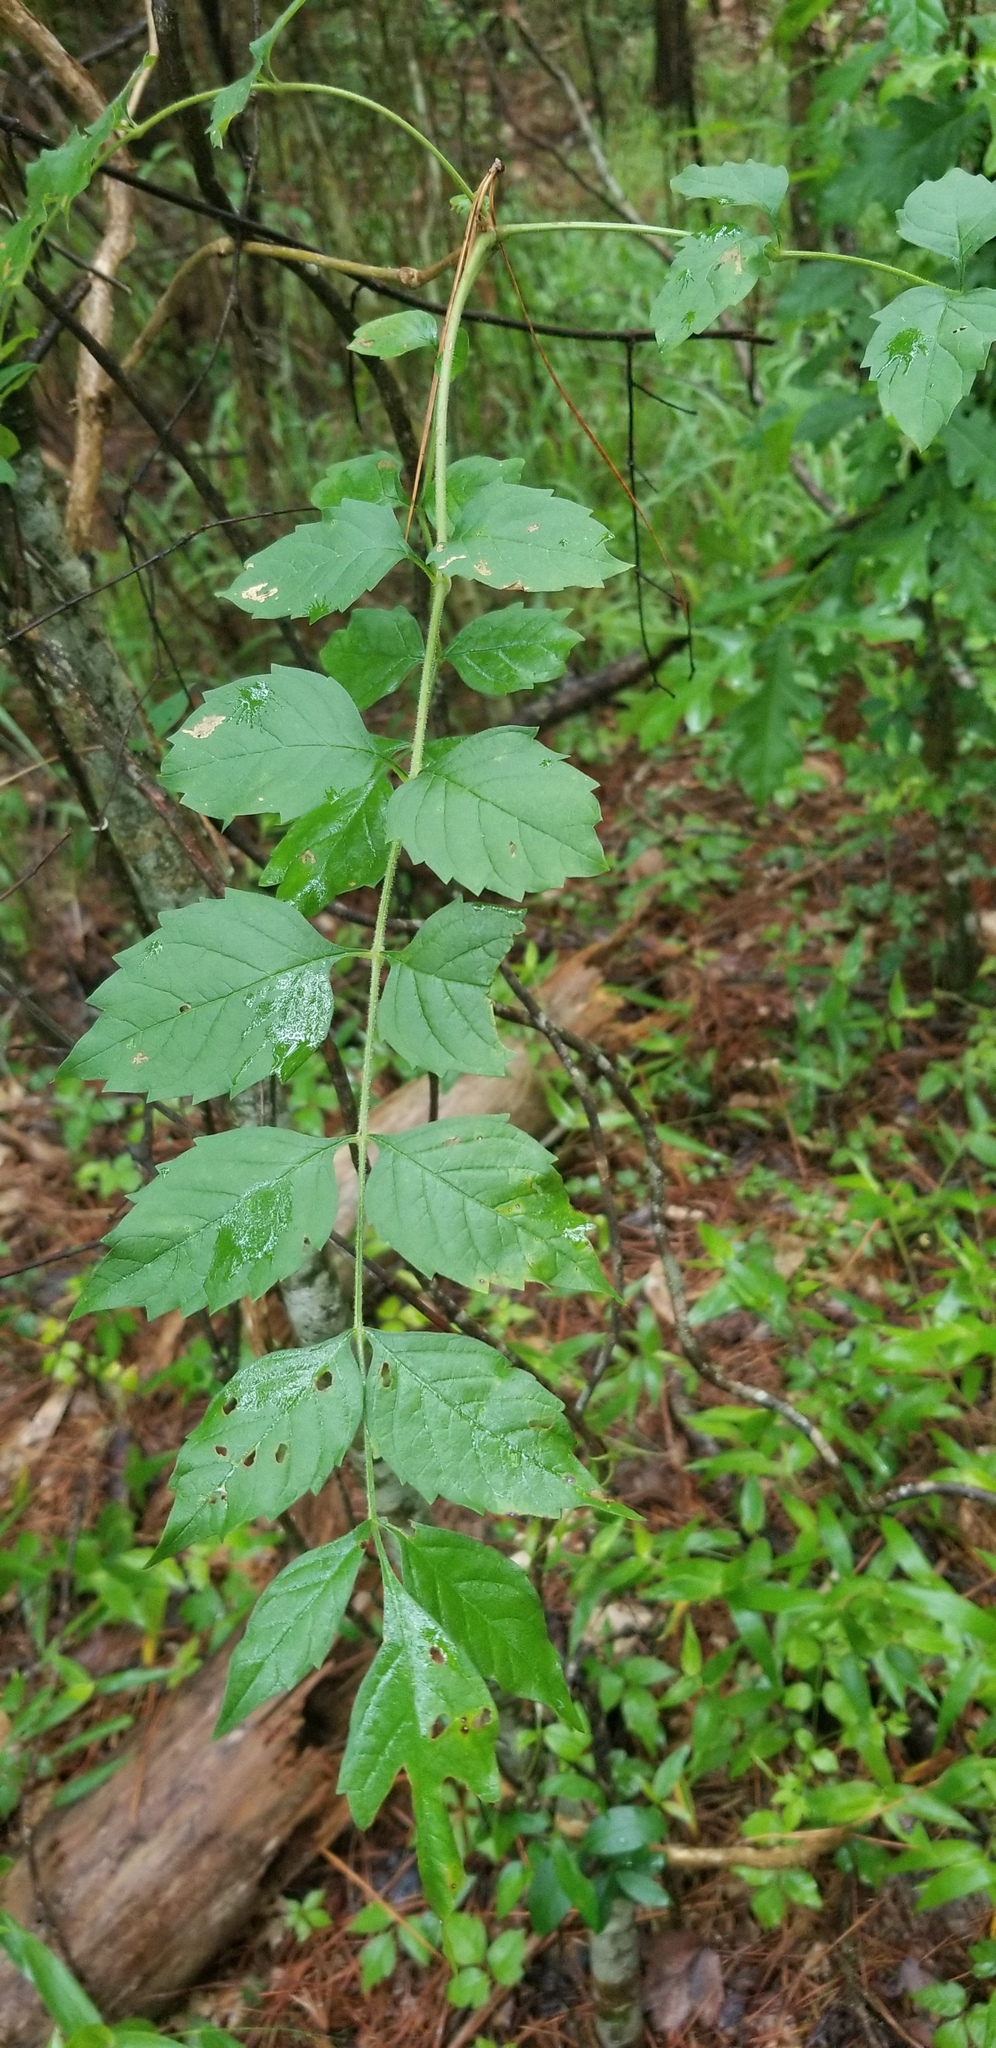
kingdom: Plantae
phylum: Tracheophyta
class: Magnoliopsida
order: Lamiales
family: Bignoniaceae
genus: Campsis
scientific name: Campsis radicans
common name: Trumpet-creeper
